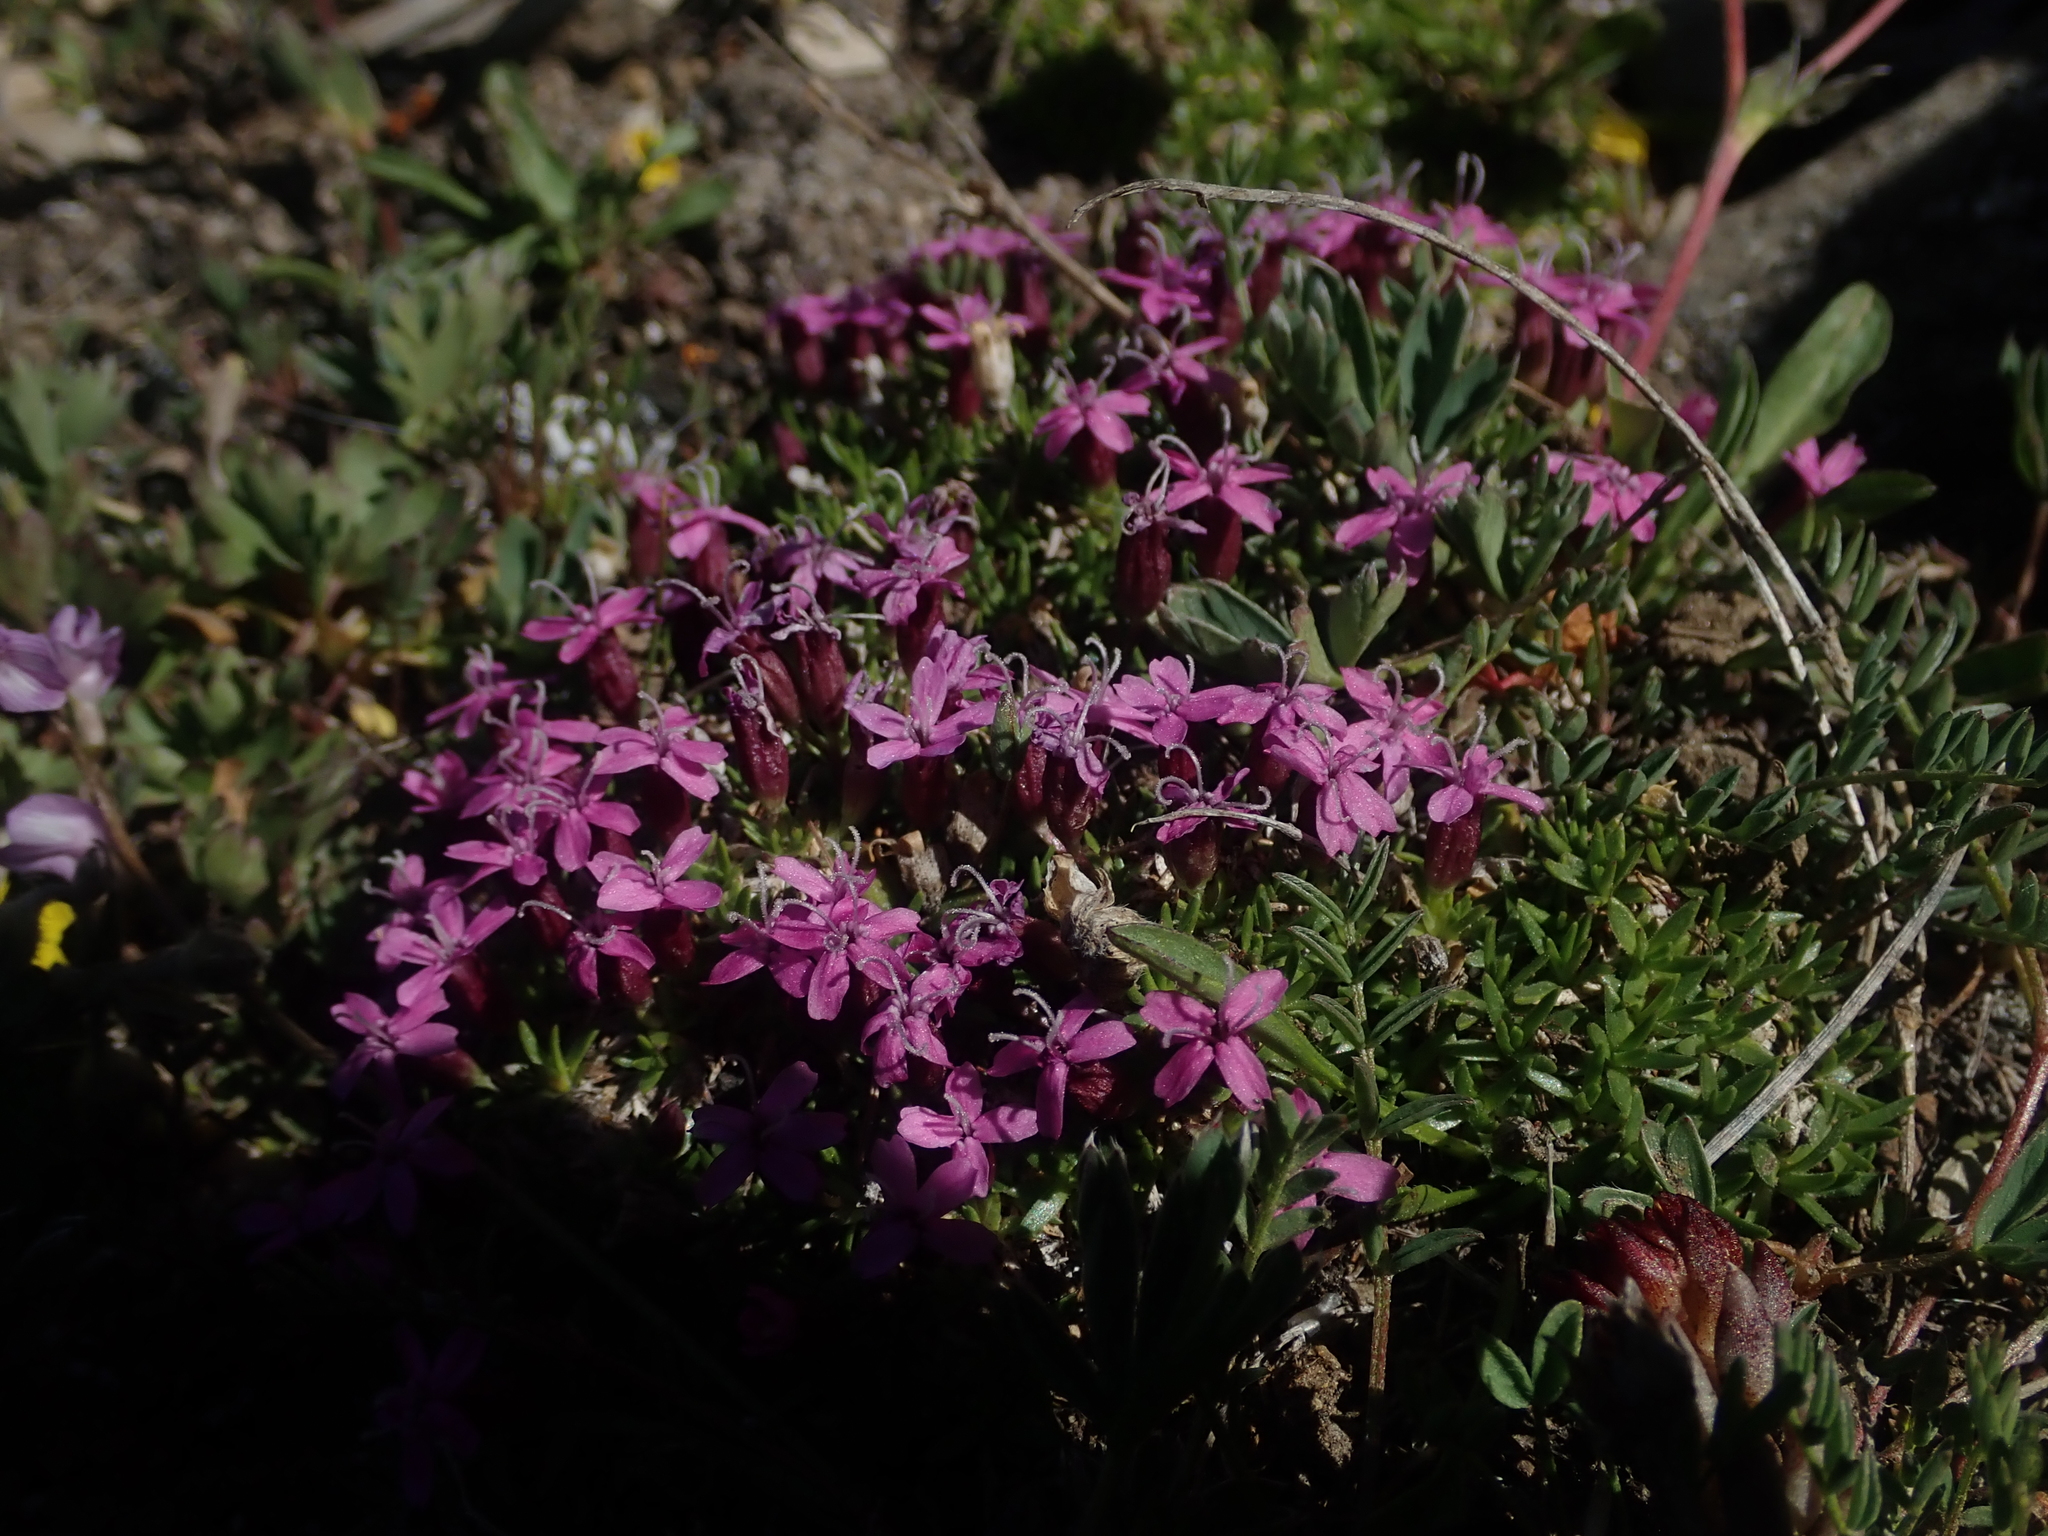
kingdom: Plantae
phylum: Tracheophyta
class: Magnoliopsida
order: Caryophyllales
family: Caryophyllaceae
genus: Silene
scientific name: Silene acaulis
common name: Moss campion
